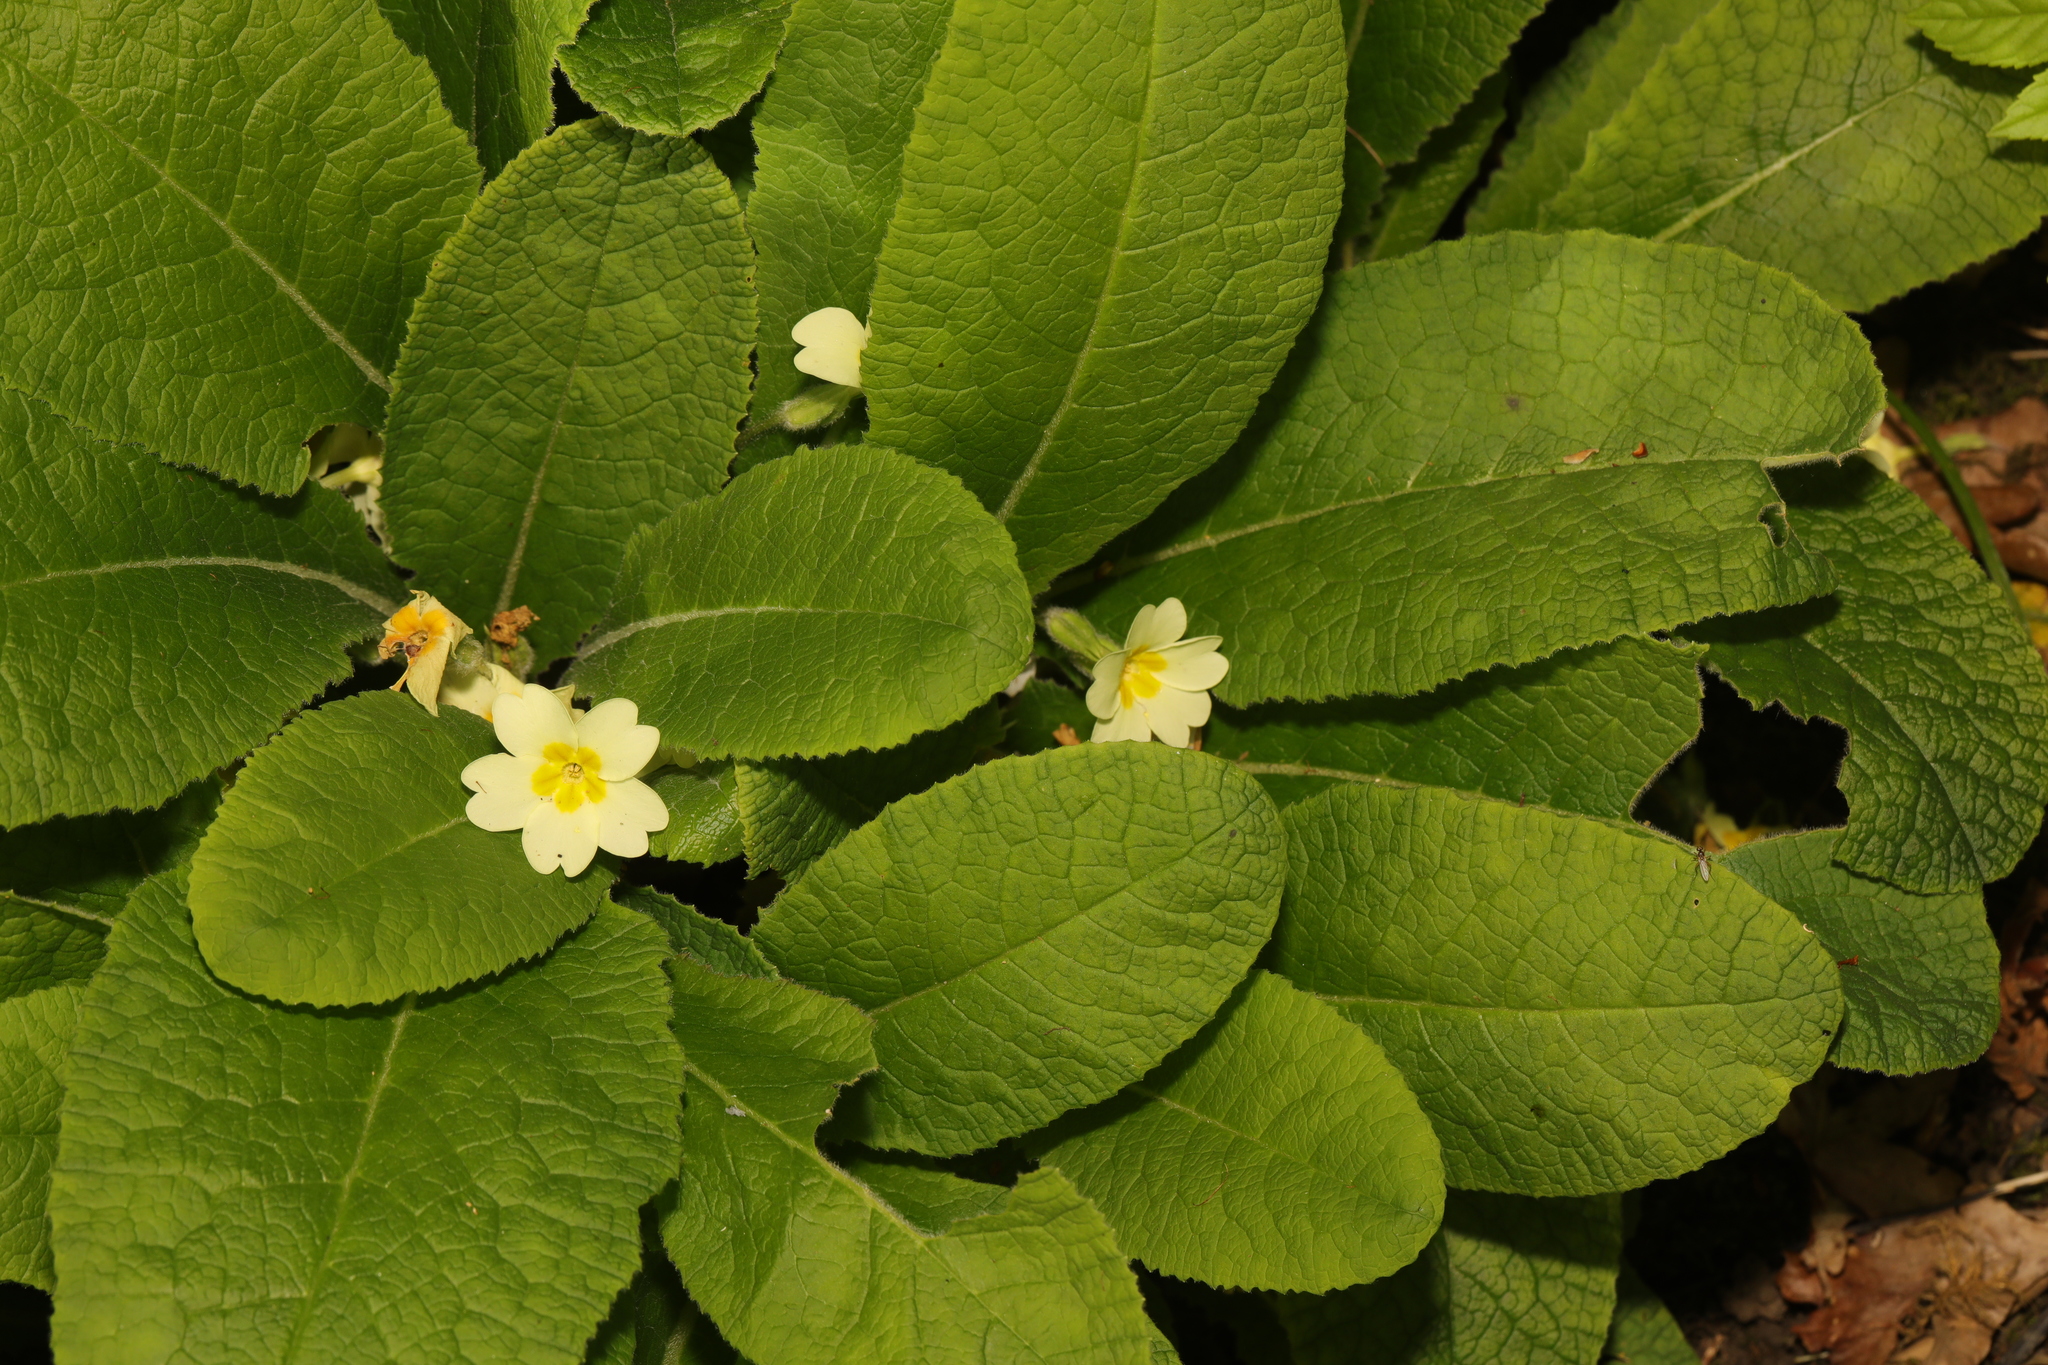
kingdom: Plantae
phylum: Tracheophyta
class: Magnoliopsida
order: Ericales
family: Primulaceae
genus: Primula
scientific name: Primula vulgaris
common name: Primrose
